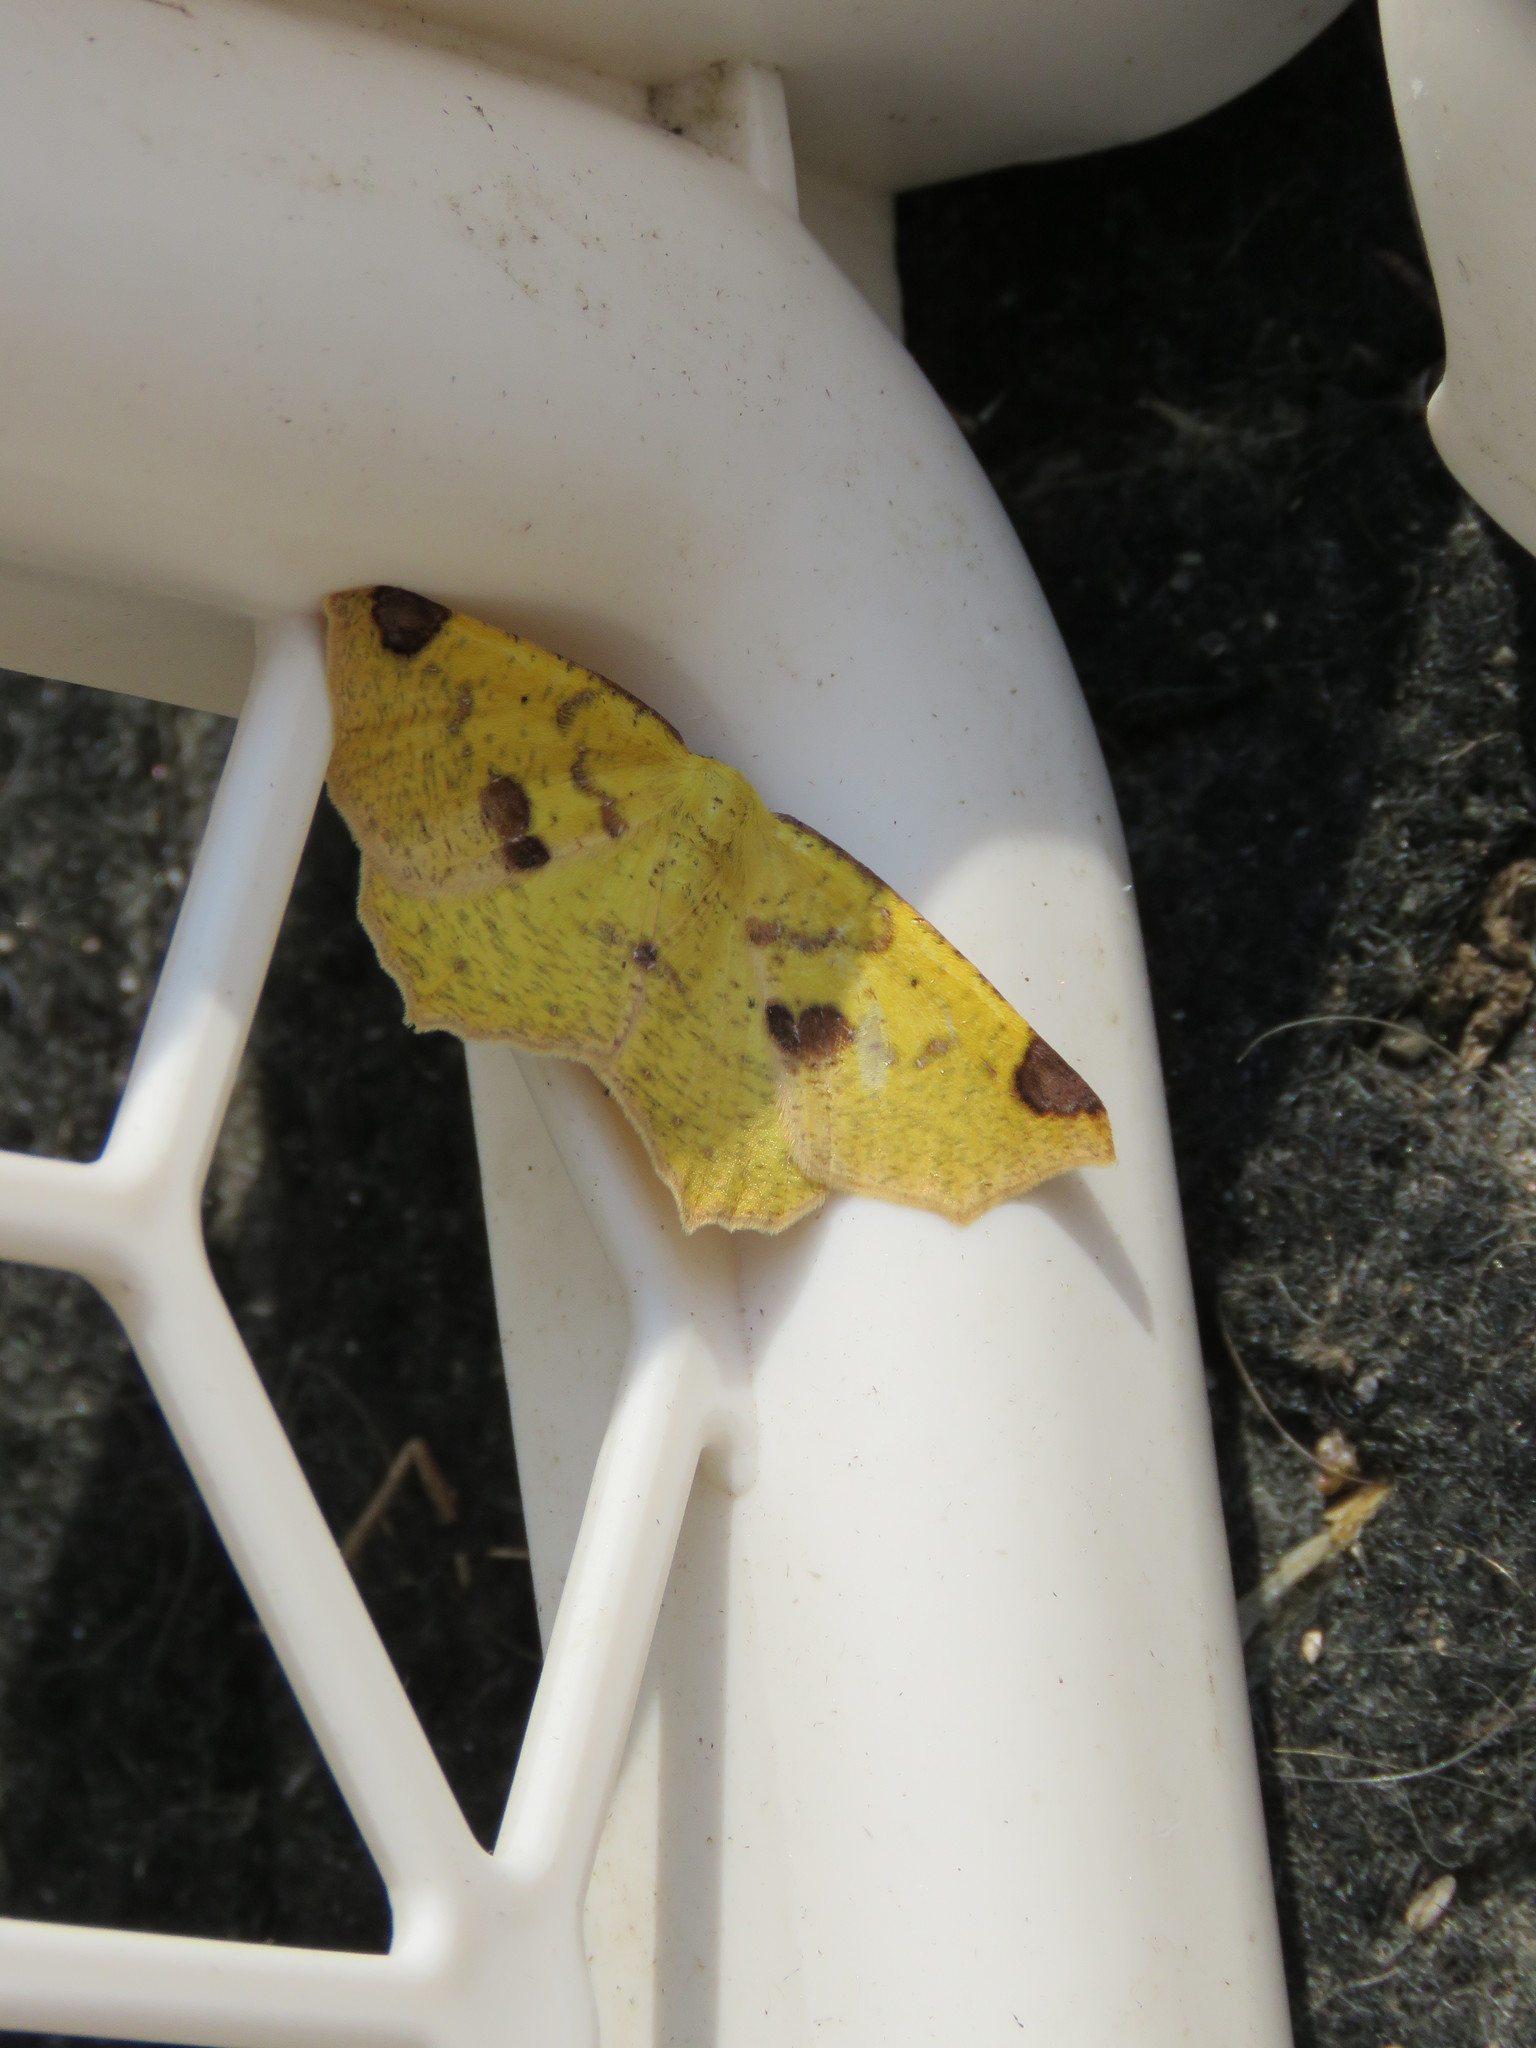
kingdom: Animalia
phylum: Arthropoda
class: Insecta
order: Lepidoptera
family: Geometridae
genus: Antepione
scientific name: Antepione thisoaria
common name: Variable antipione
